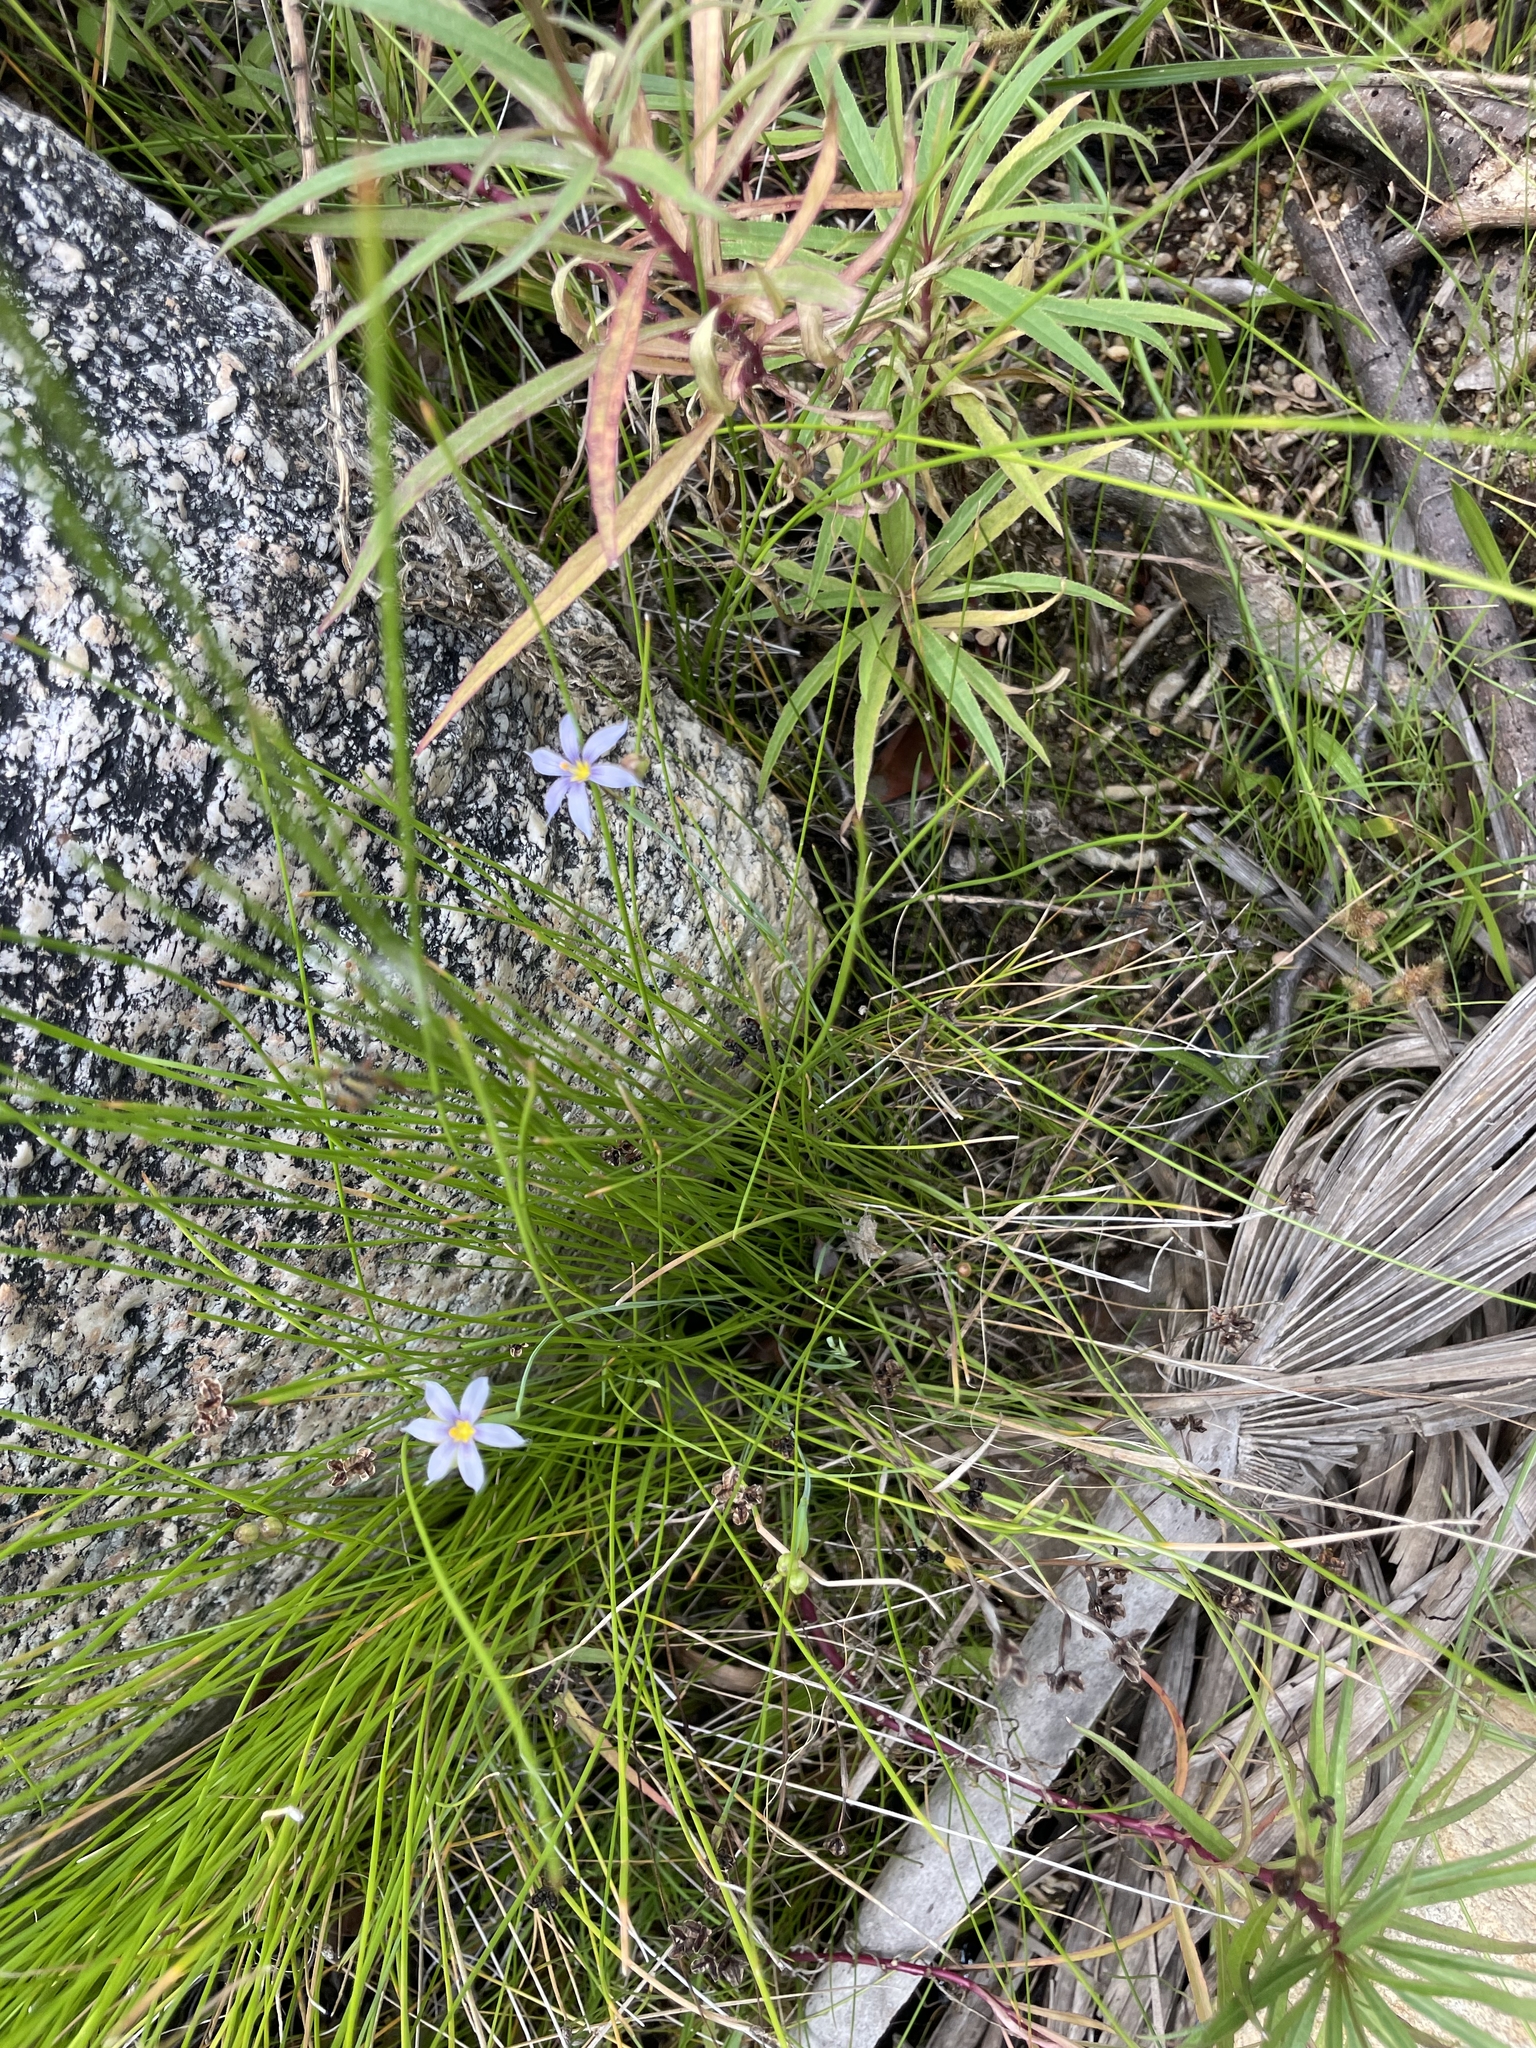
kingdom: Plantae
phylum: Tracheophyta
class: Liliopsida
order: Asparagales
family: Iridaceae
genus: Sisyrinchium
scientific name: Sisyrinchium demissum
